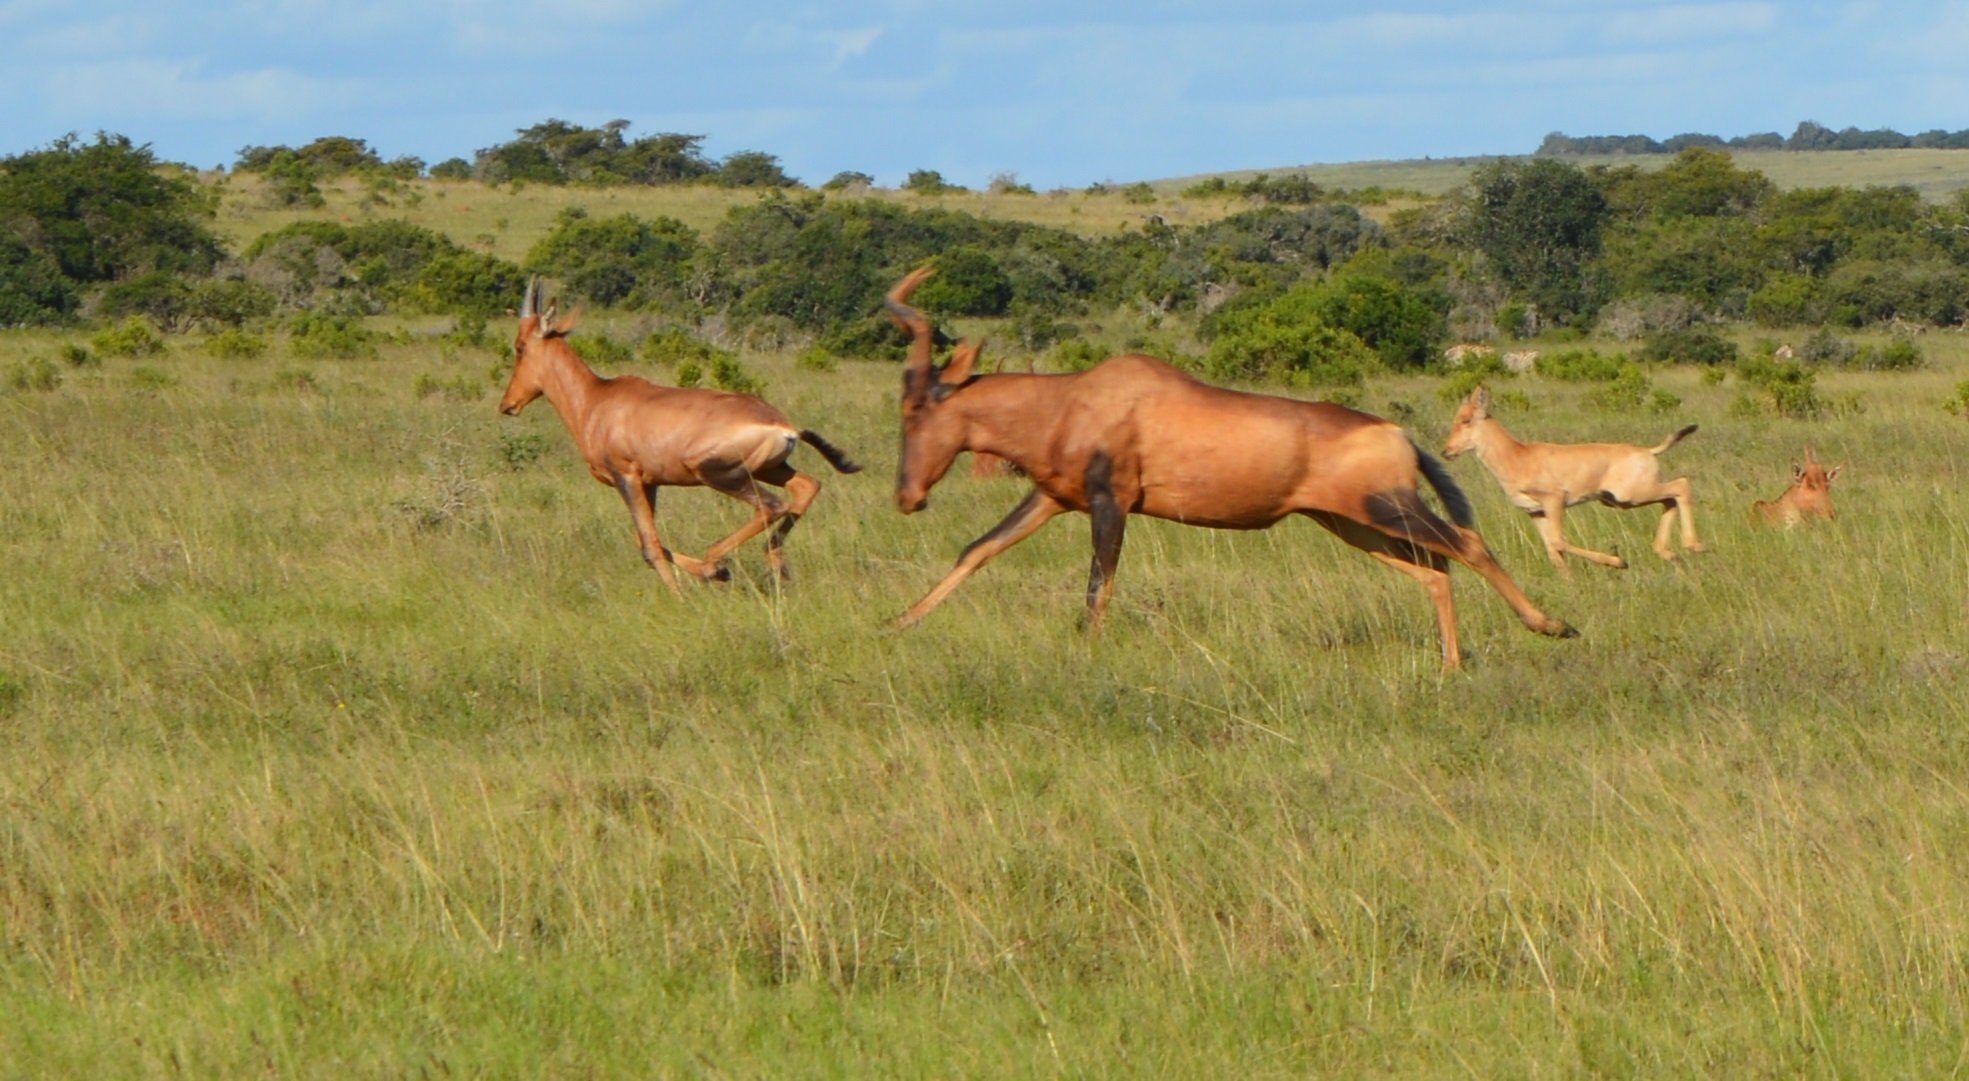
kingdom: Animalia
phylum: Chordata
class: Mammalia
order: Artiodactyla
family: Bovidae
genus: Alcelaphus
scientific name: Alcelaphus caama
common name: Red hartebeest
